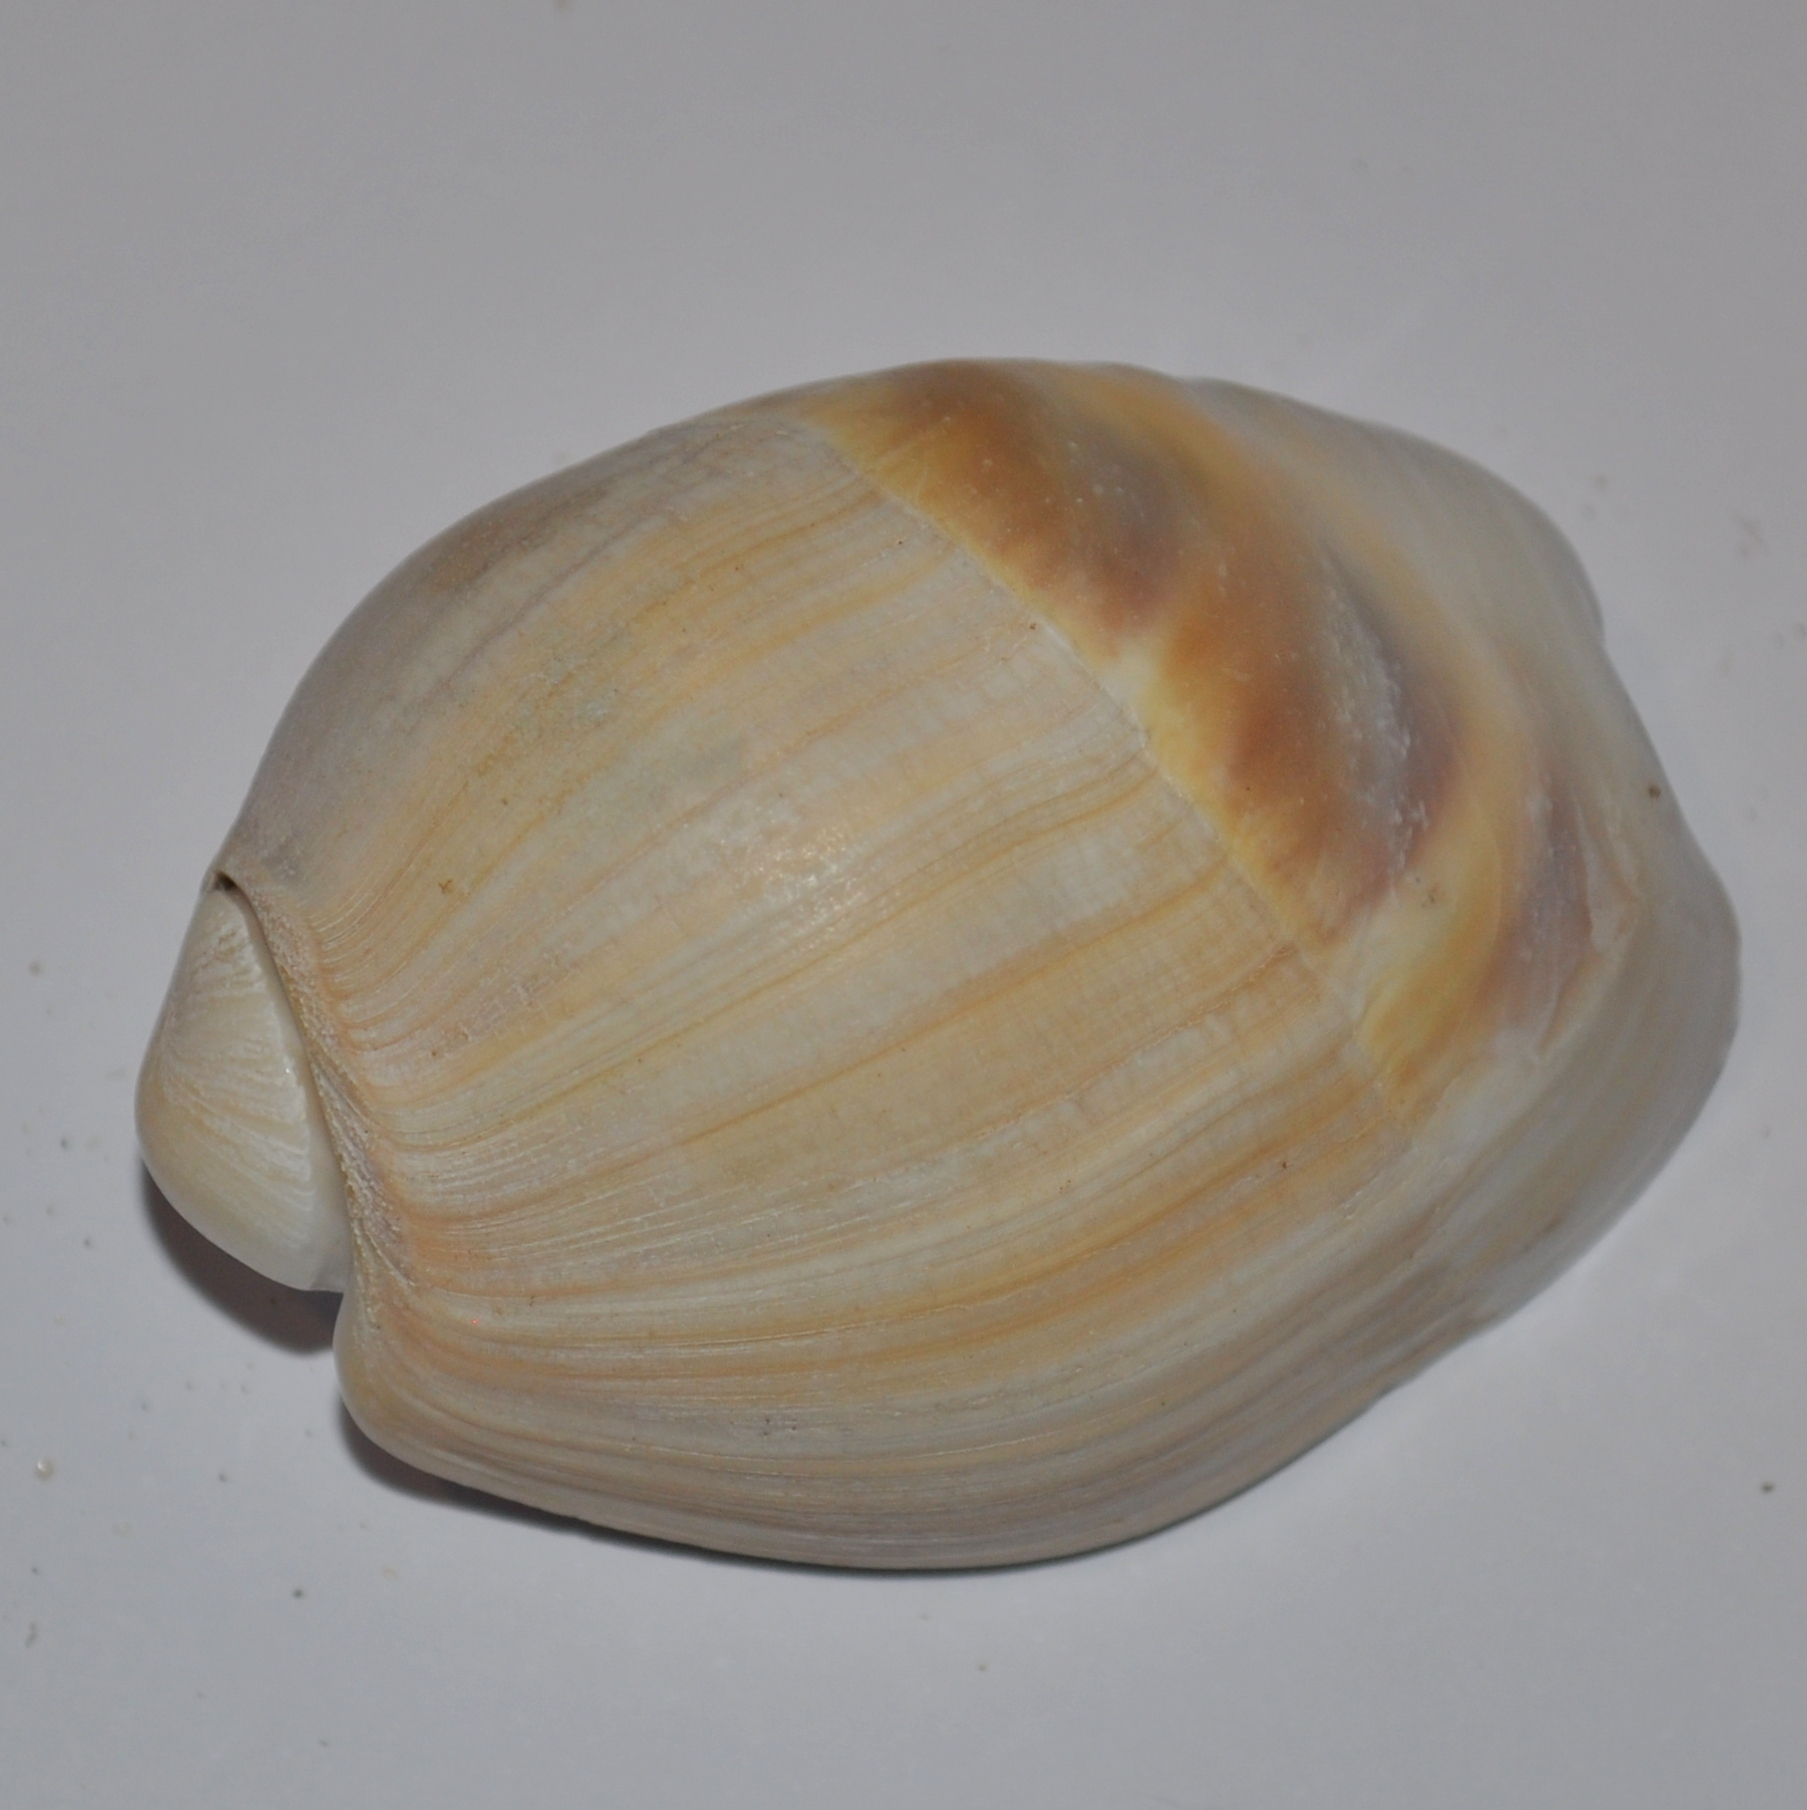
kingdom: Animalia
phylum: Mollusca
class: Gastropoda
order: Neogastropoda
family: Olividae
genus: Olivancillaria
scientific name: Olivancillaria auricularia
